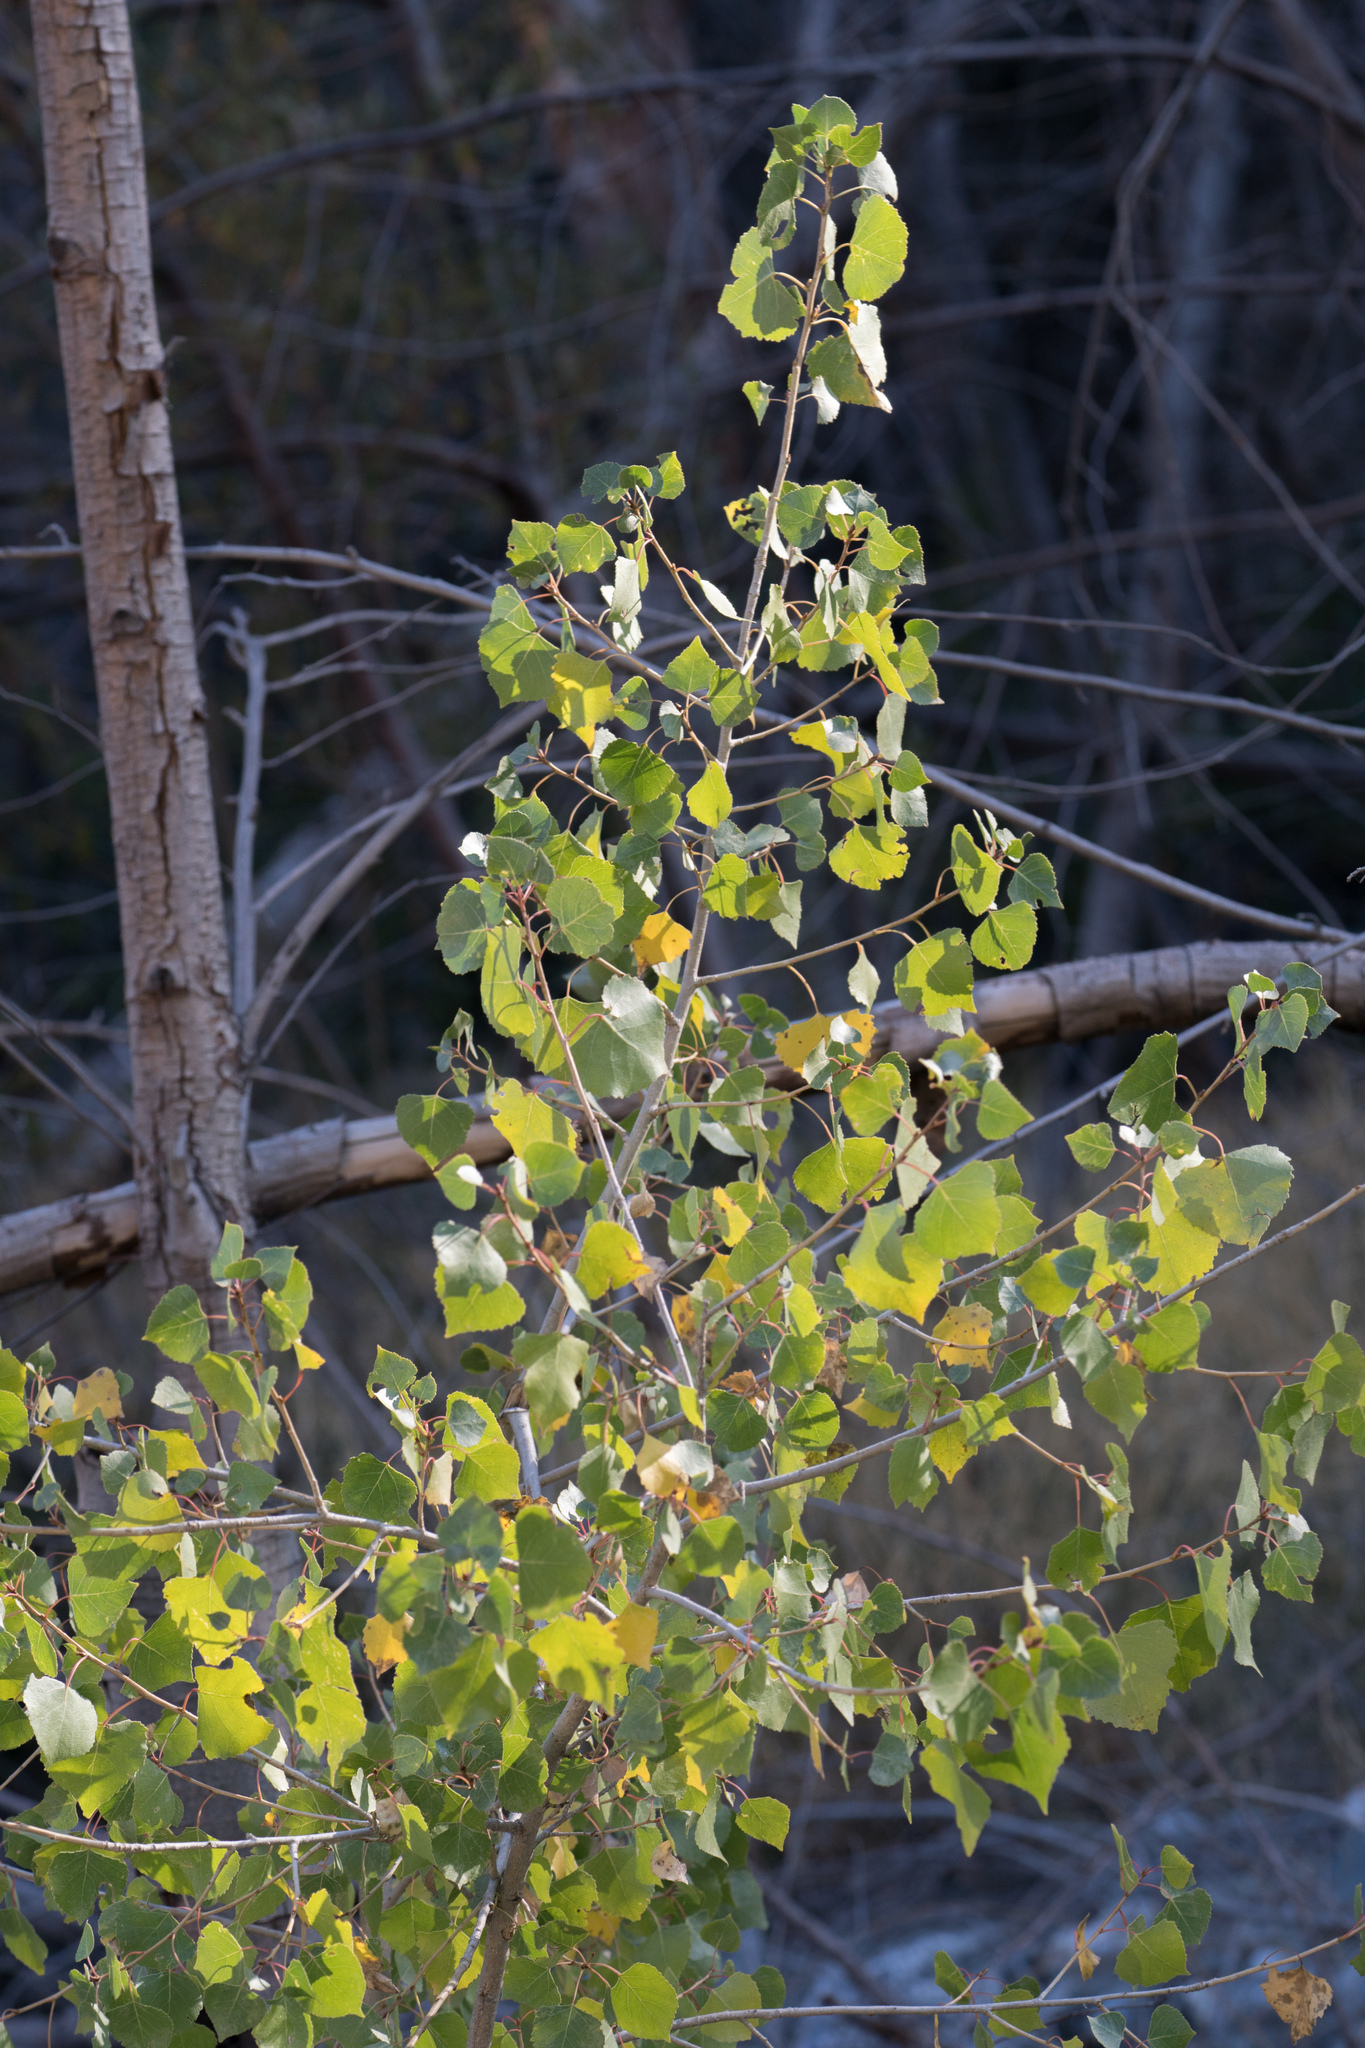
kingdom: Plantae
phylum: Tracheophyta
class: Magnoliopsida
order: Malpighiales
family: Salicaceae
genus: Populus
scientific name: Populus fremontii
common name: Fremont's cottonwood
